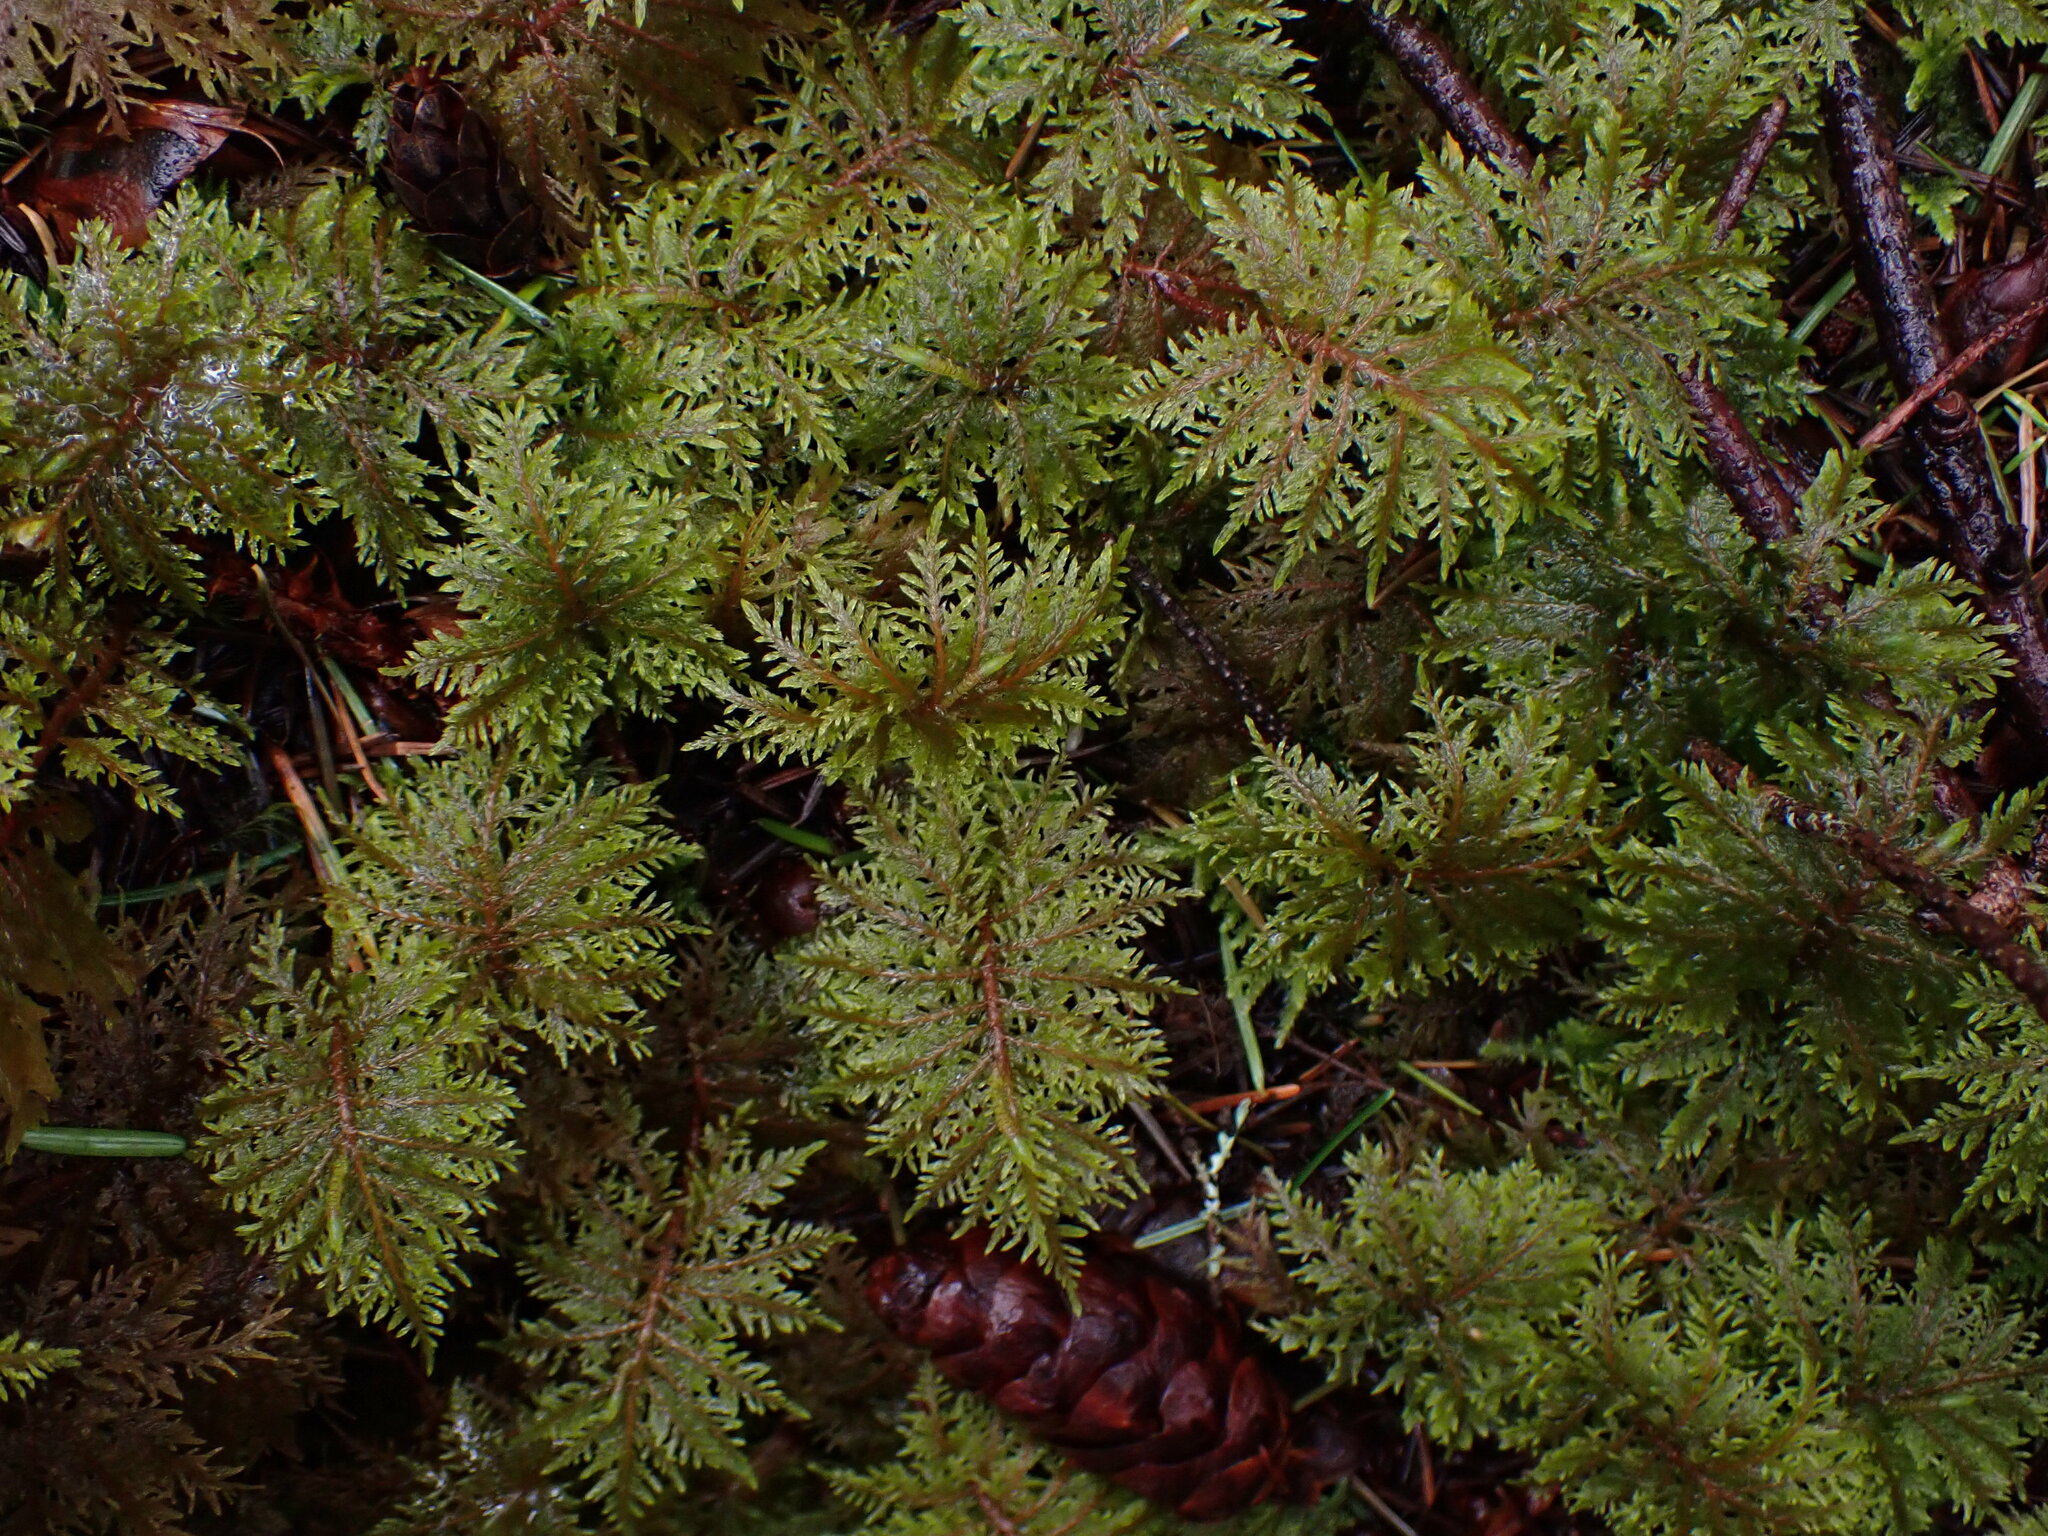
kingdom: Plantae
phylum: Bryophyta
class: Bryopsida
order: Hypnales
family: Hylocomiaceae
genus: Hylocomium
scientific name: Hylocomium splendens
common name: Stairstep moss
